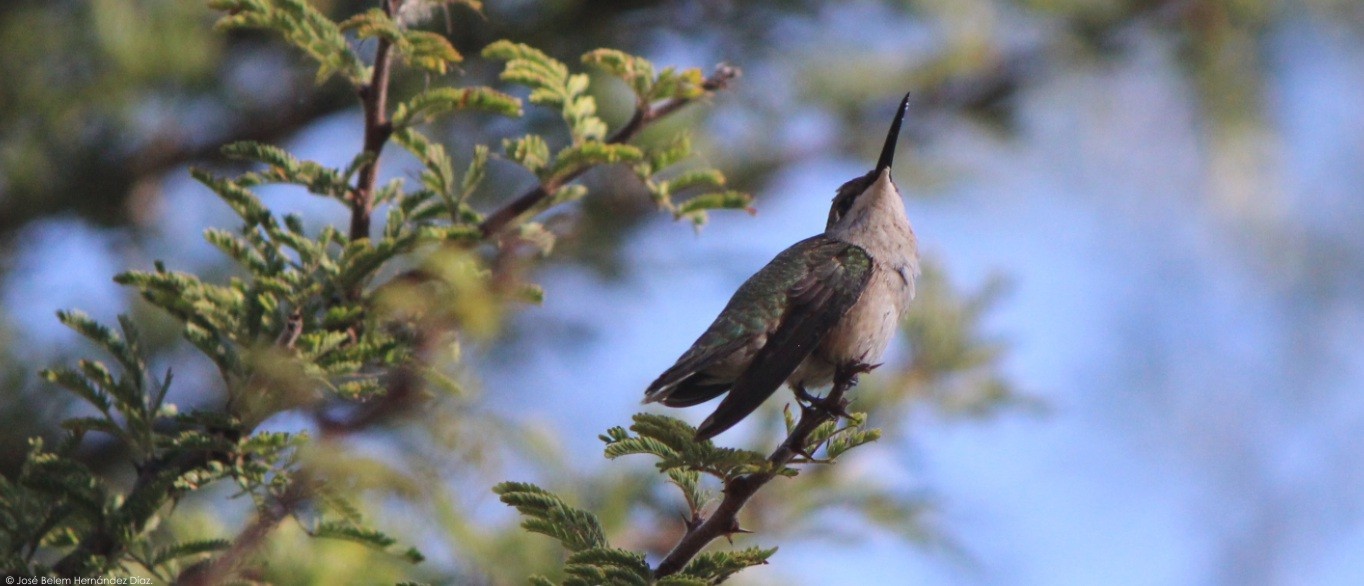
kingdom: Animalia
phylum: Chordata
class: Aves
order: Apodiformes
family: Trochilidae
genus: Calothorax
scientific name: Calothorax lucifer
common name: Lucifer sheartail
